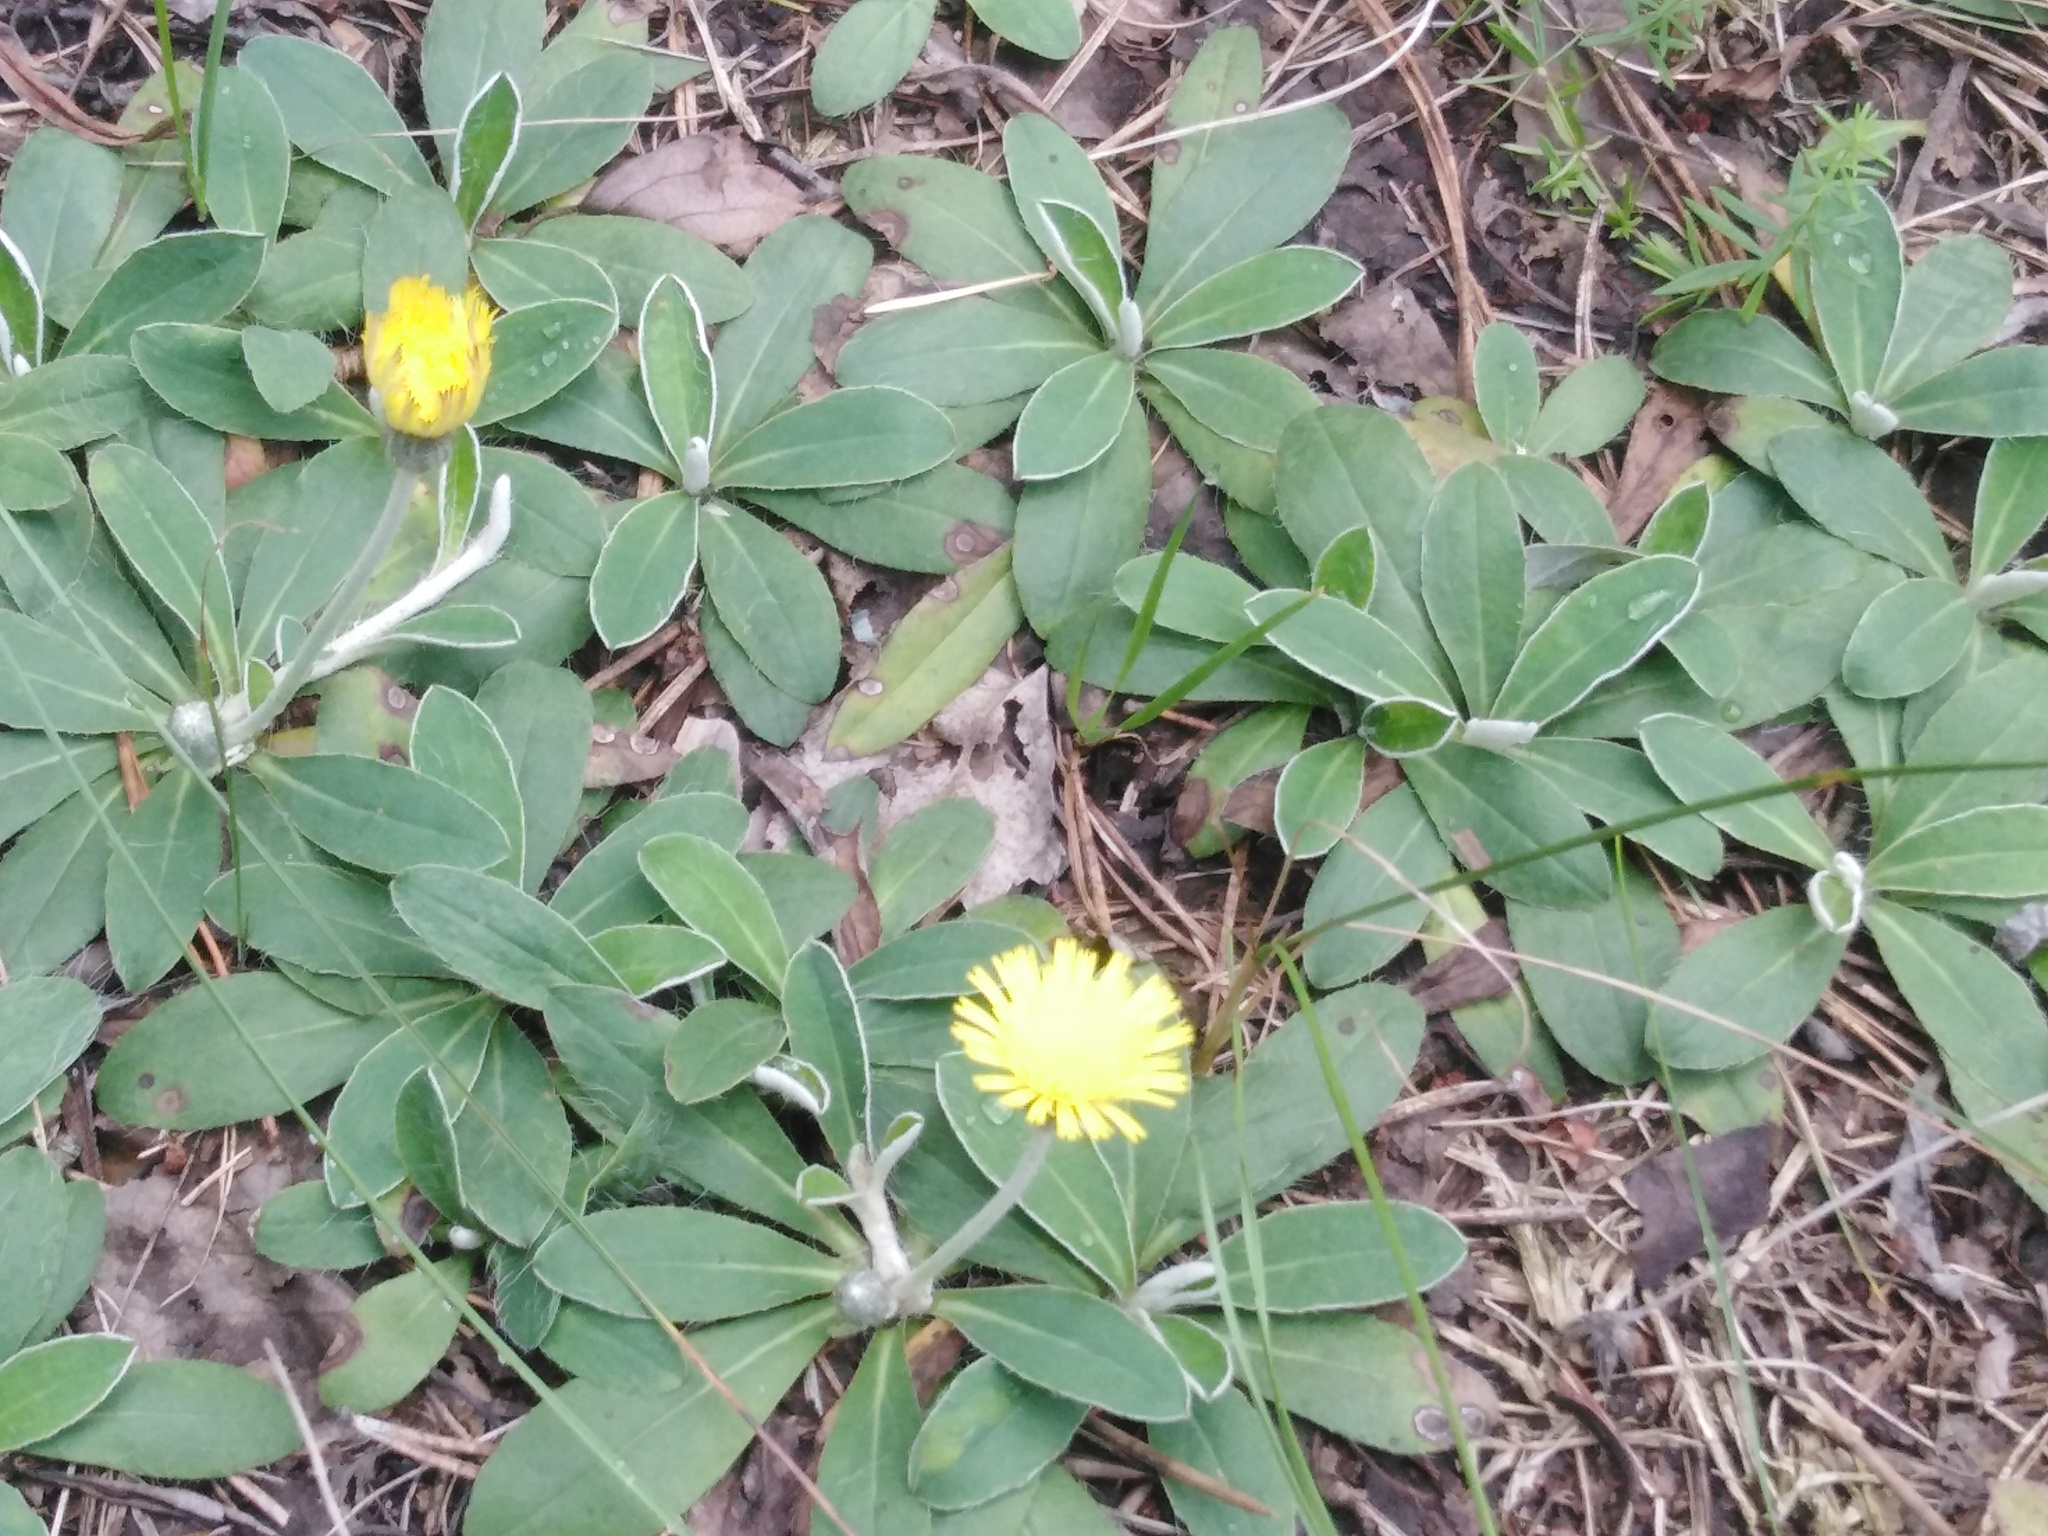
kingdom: Plantae
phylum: Tracheophyta
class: Magnoliopsida
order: Asterales
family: Asteraceae
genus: Pilosella
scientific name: Pilosella officinarum
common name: Mouse-ear hawkweed
